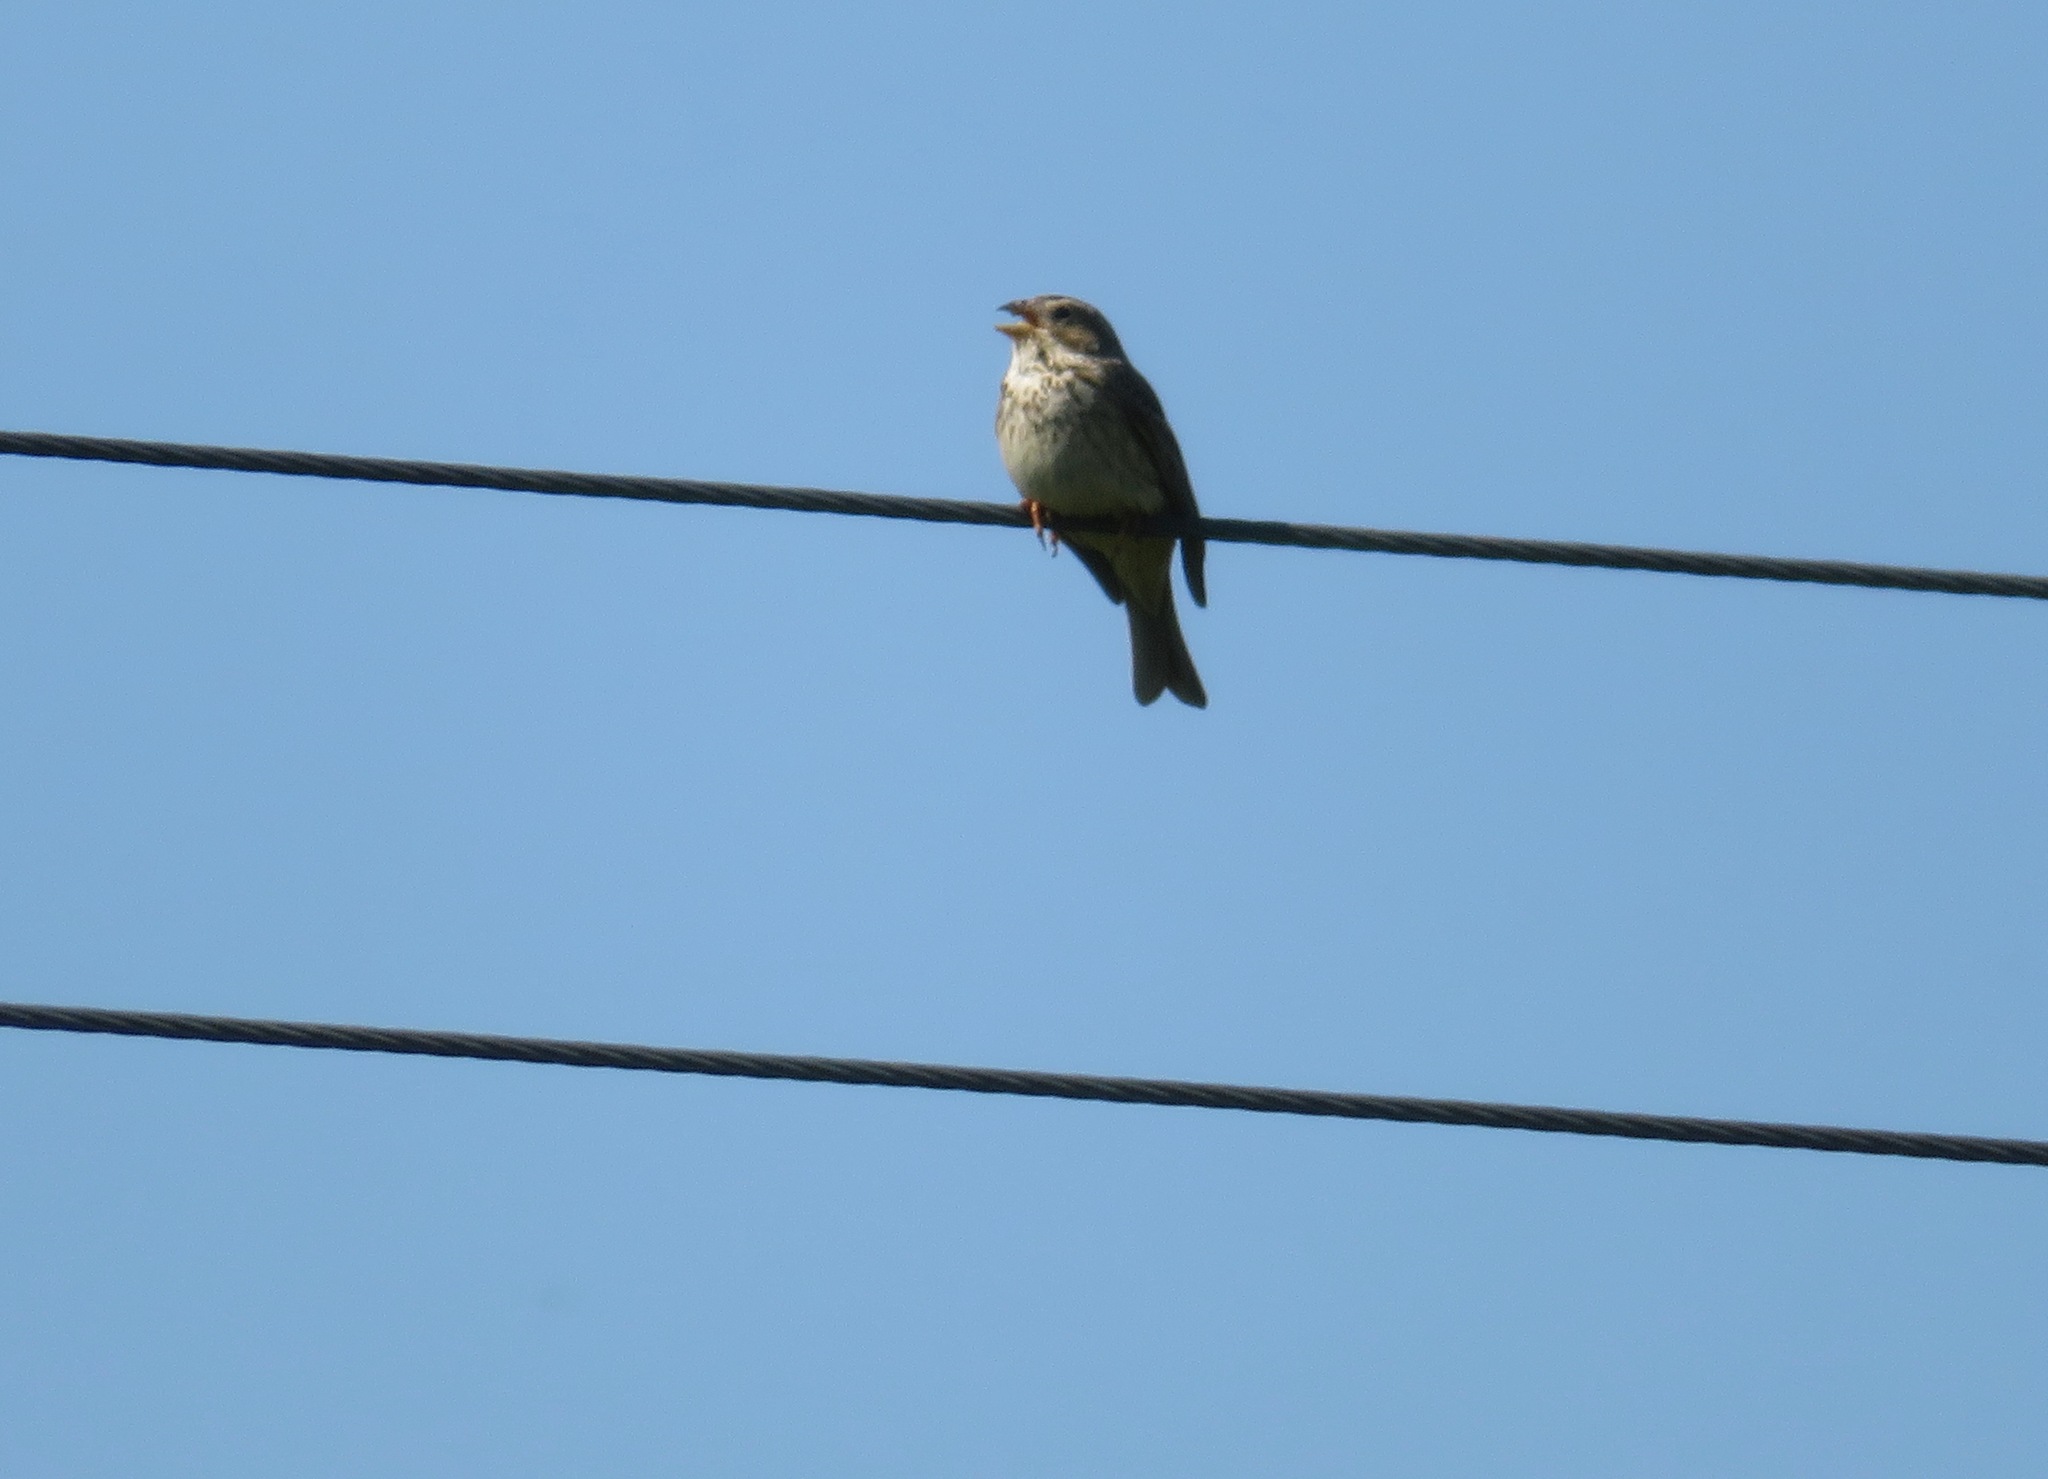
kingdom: Animalia
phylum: Chordata
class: Aves
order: Passeriformes
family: Emberizidae
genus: Emberiza
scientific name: Emberiza calandra
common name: Corn bunting
